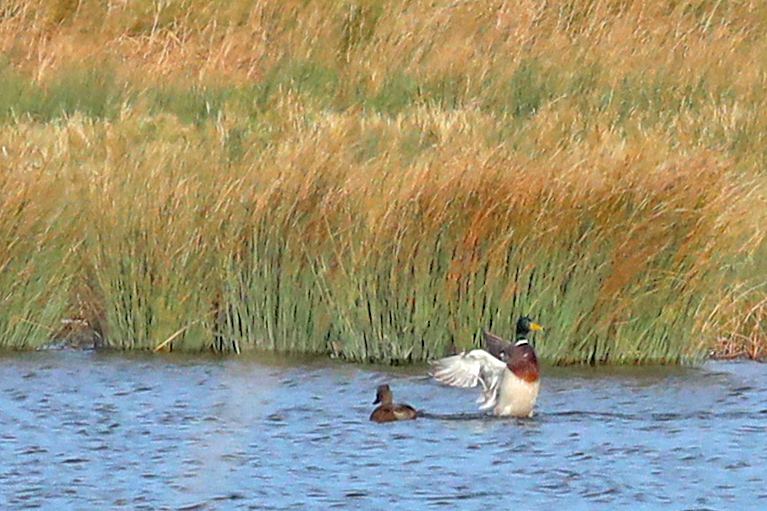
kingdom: Animalia
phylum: Chordata
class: Aves
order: Anseriformes
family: Anatidae
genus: Anas
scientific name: Anas platyrhynchos
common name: Mallard
